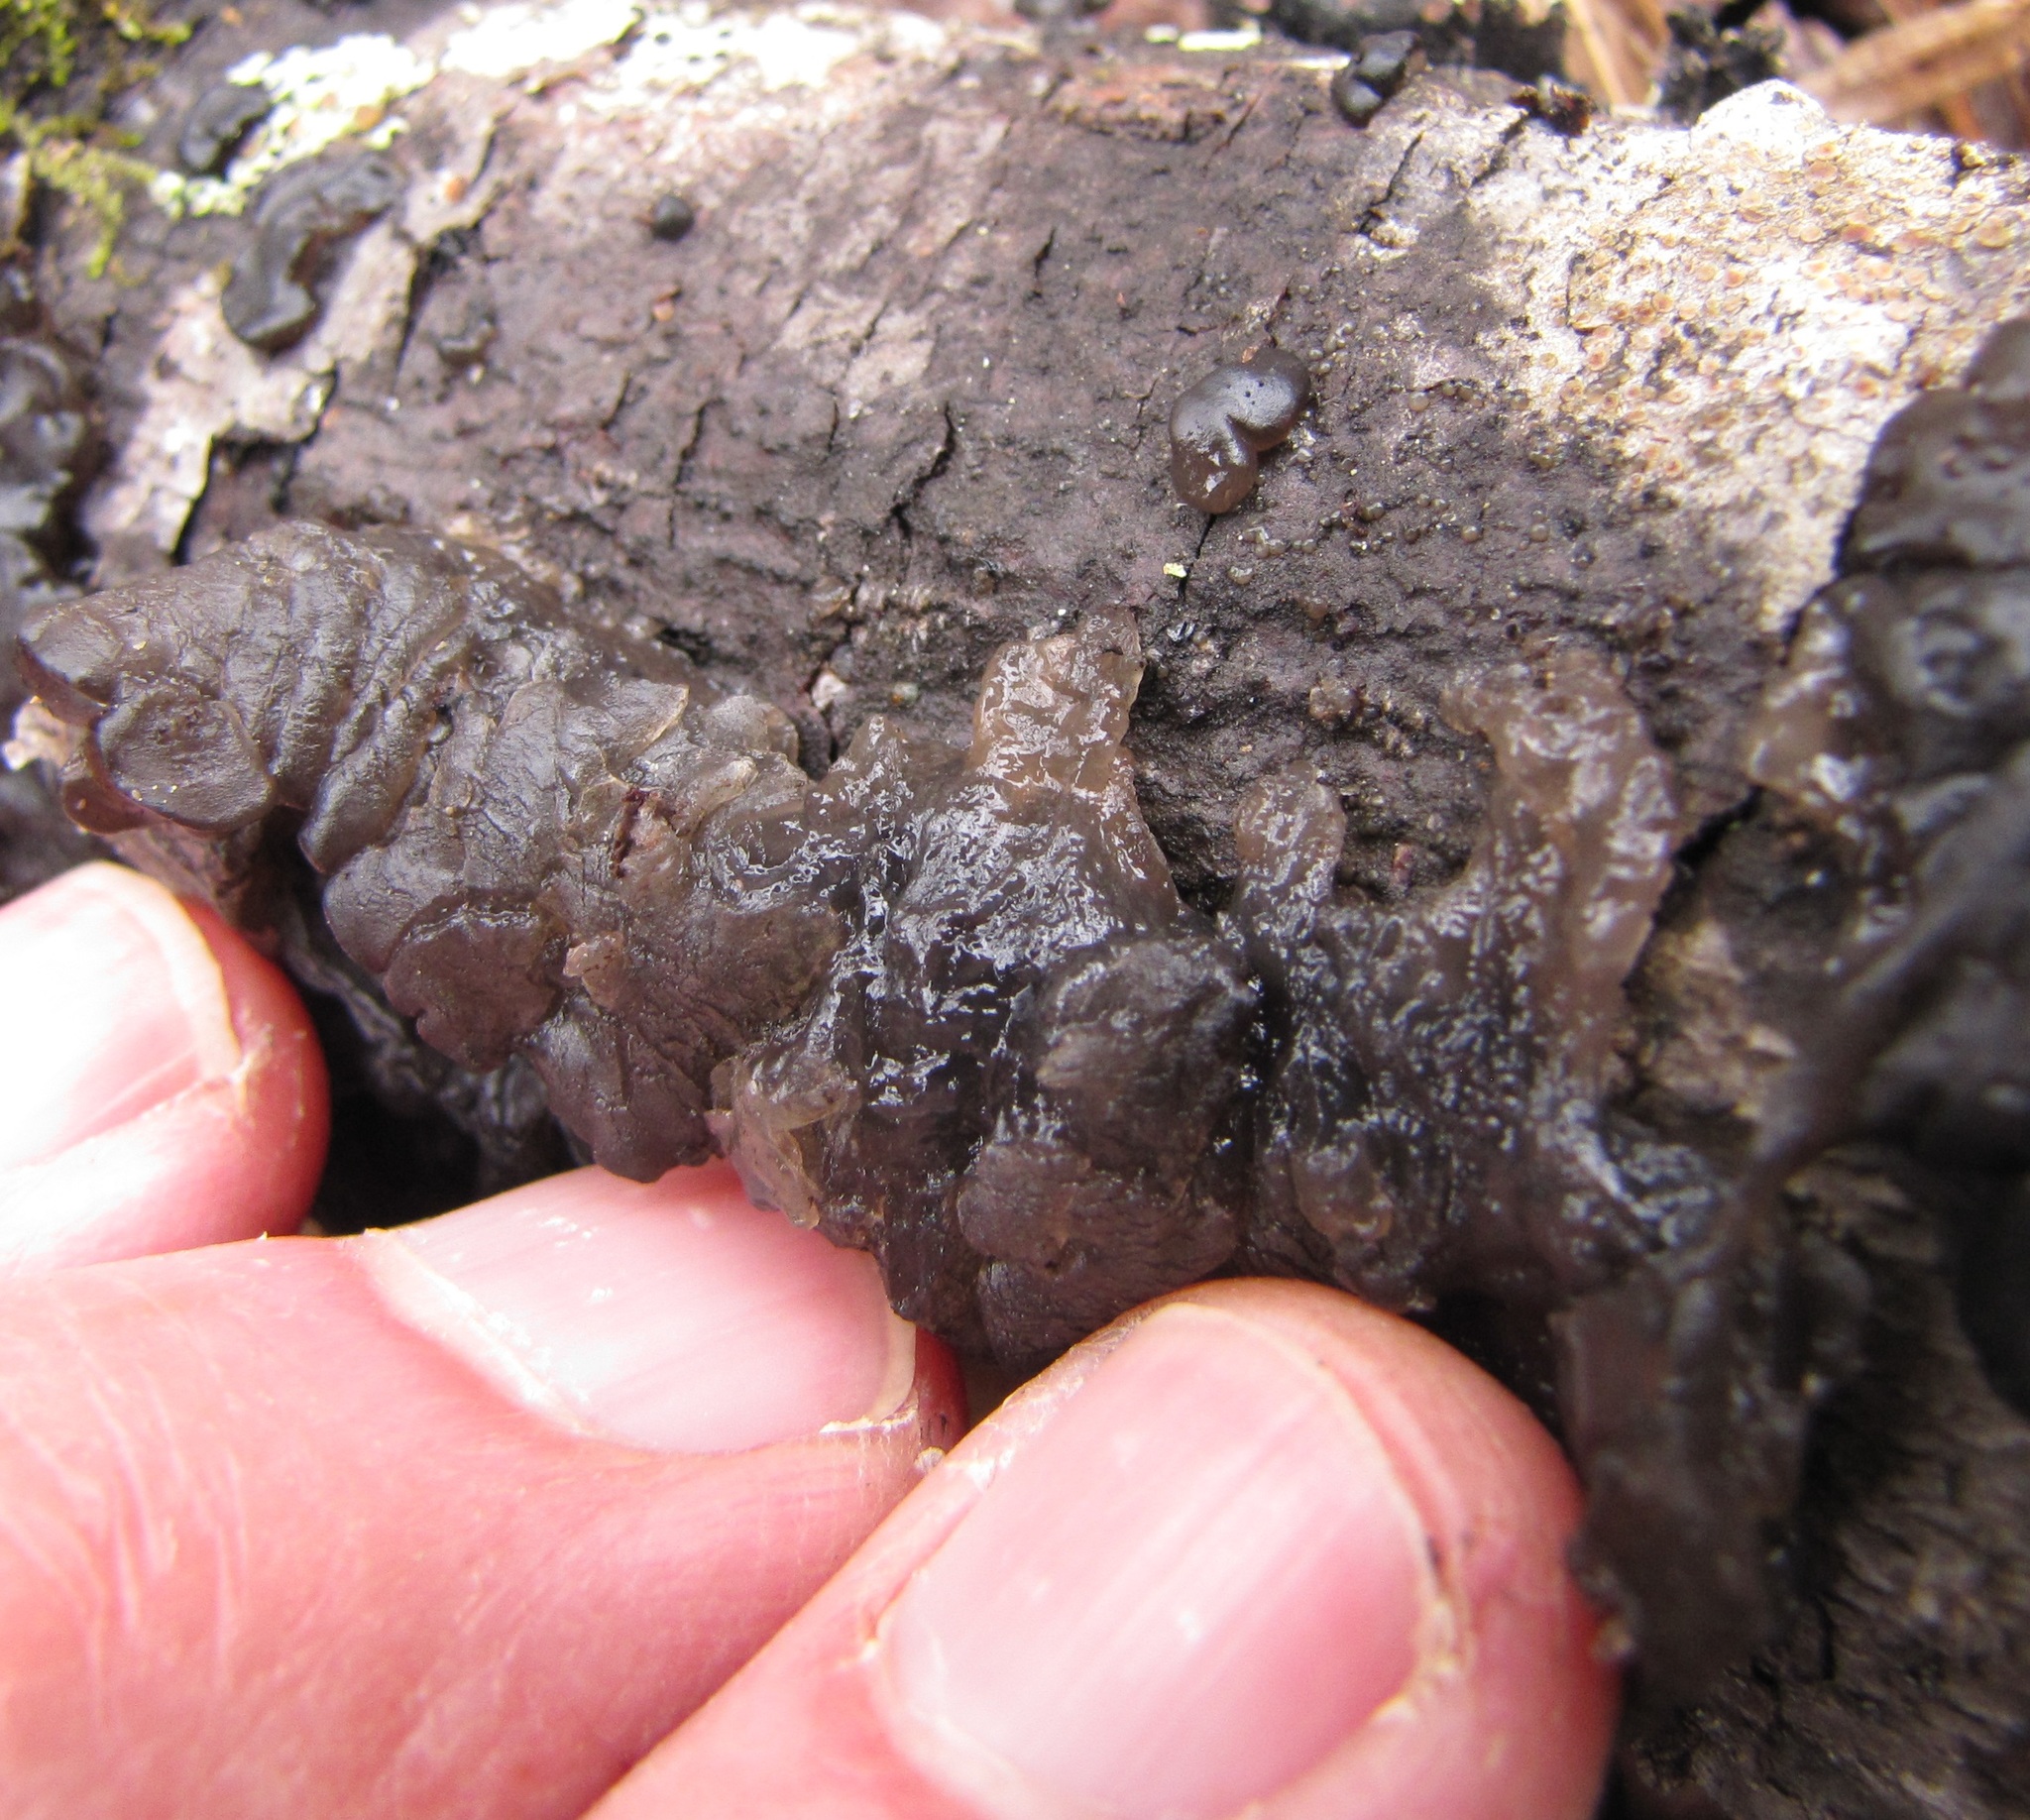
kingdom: Fungi
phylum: Basidiomycota
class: Agaricomycetes
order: Auriculariales
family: Auriculariaceae
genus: Exidia
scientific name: Exidia glandulosa
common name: Witches' butter
